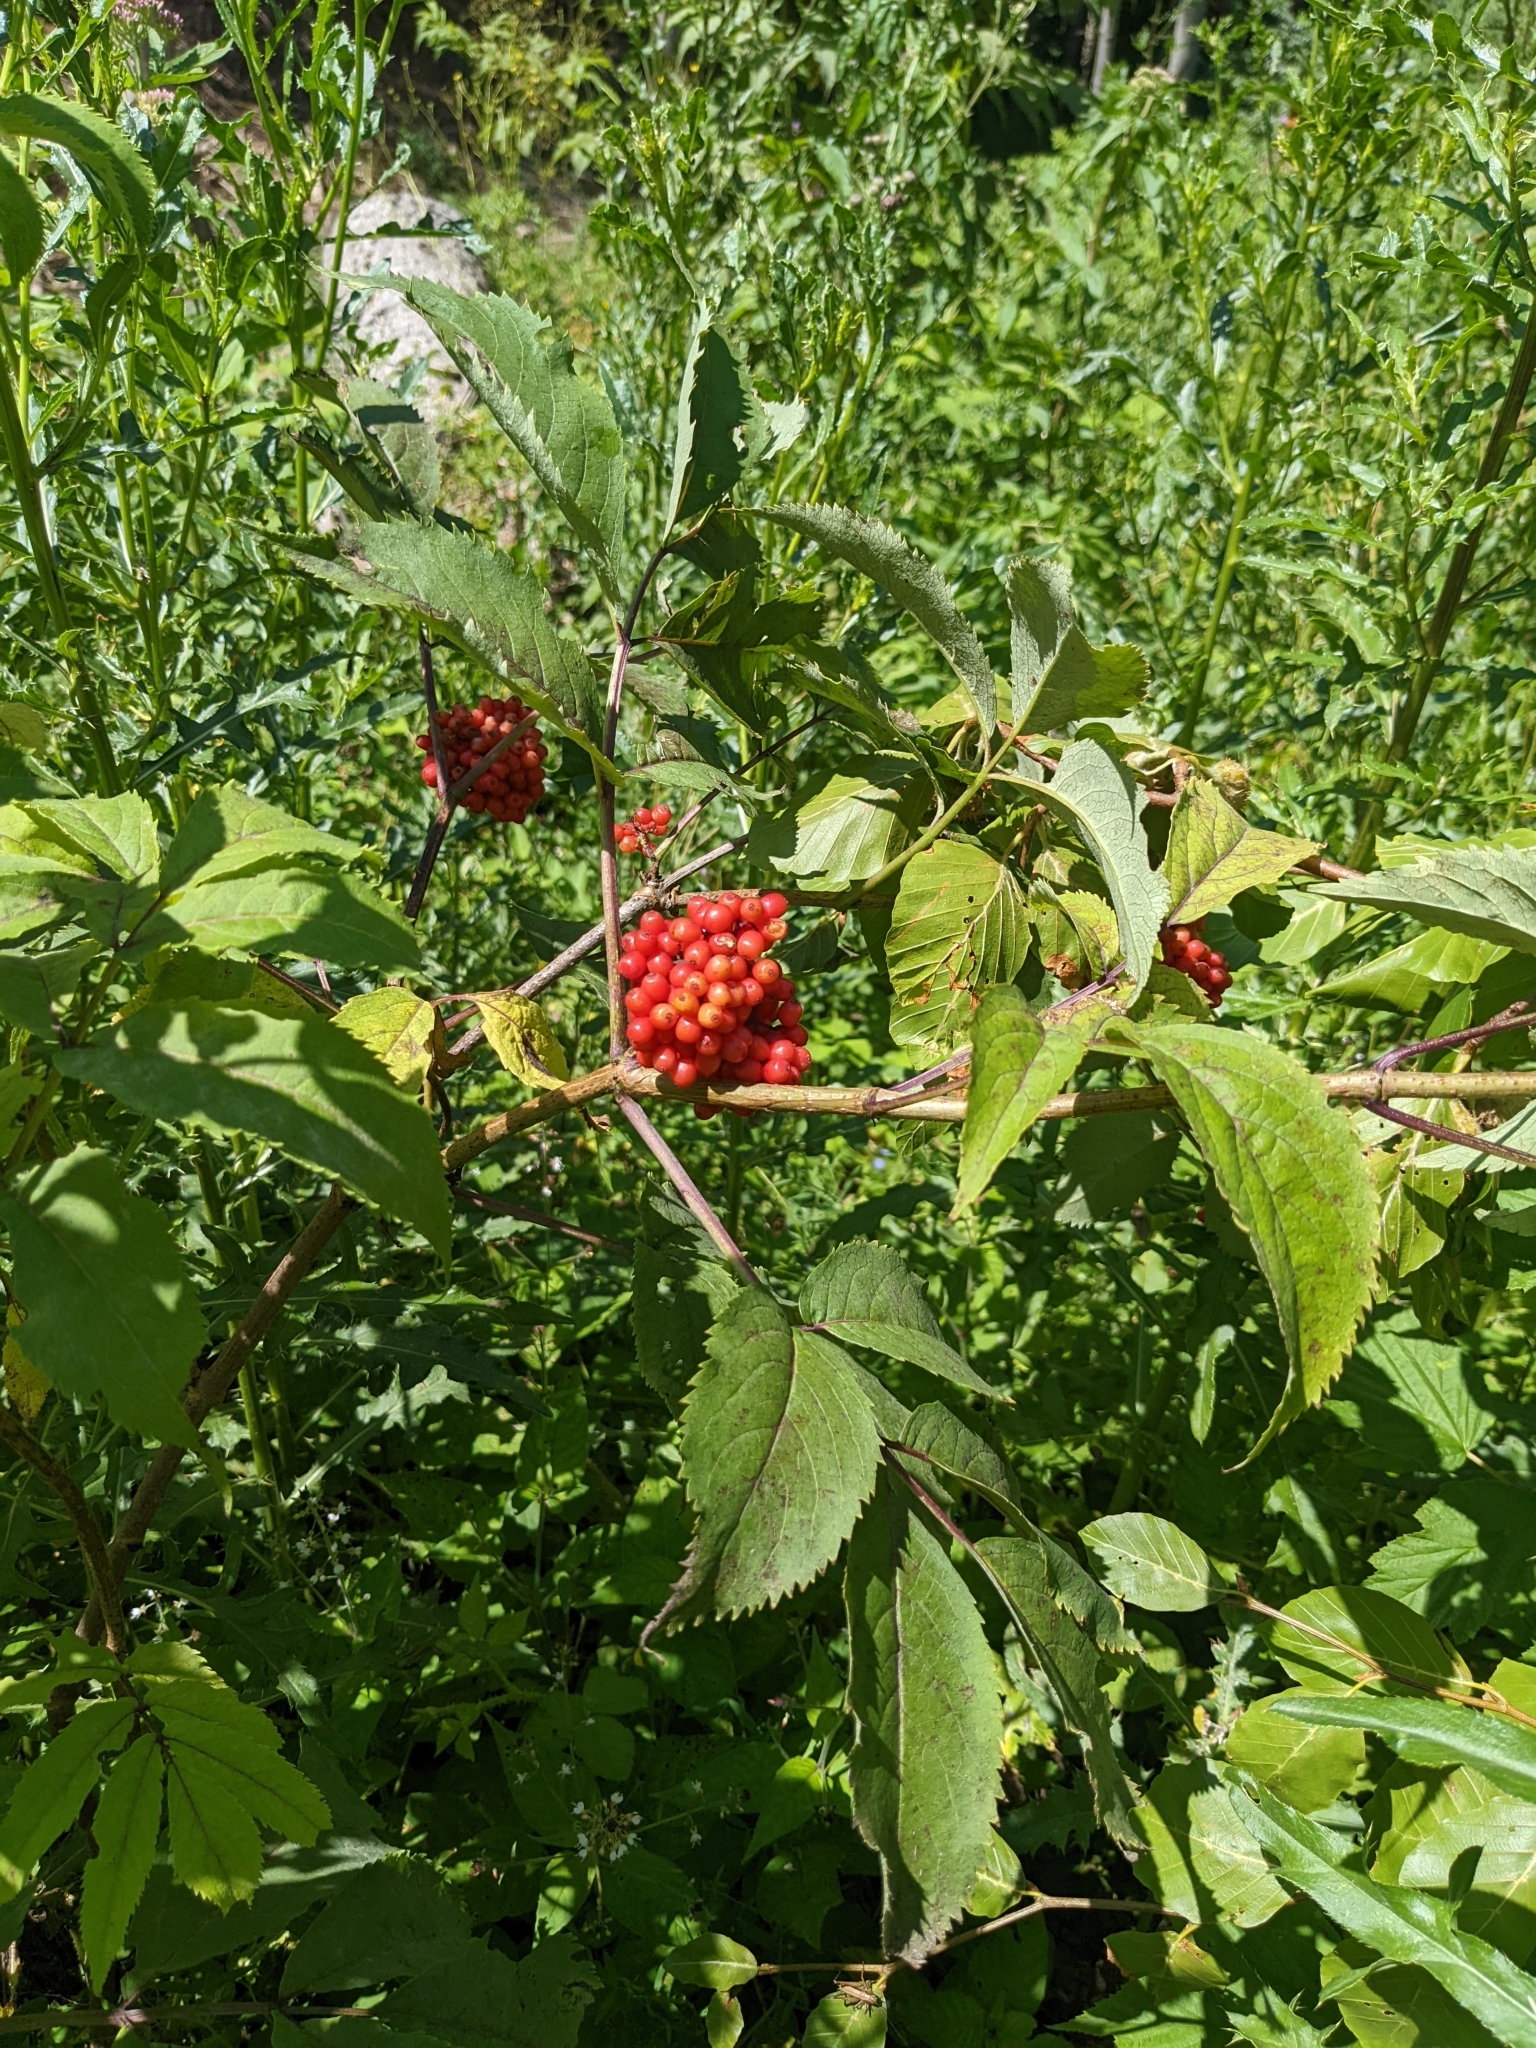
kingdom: Plantae
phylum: Tracheophyta
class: Magnoliopsida
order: Dipsacales
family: Viburnaceae
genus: Sambucus
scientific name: Sambucus racemosa
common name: Red-berried elder
